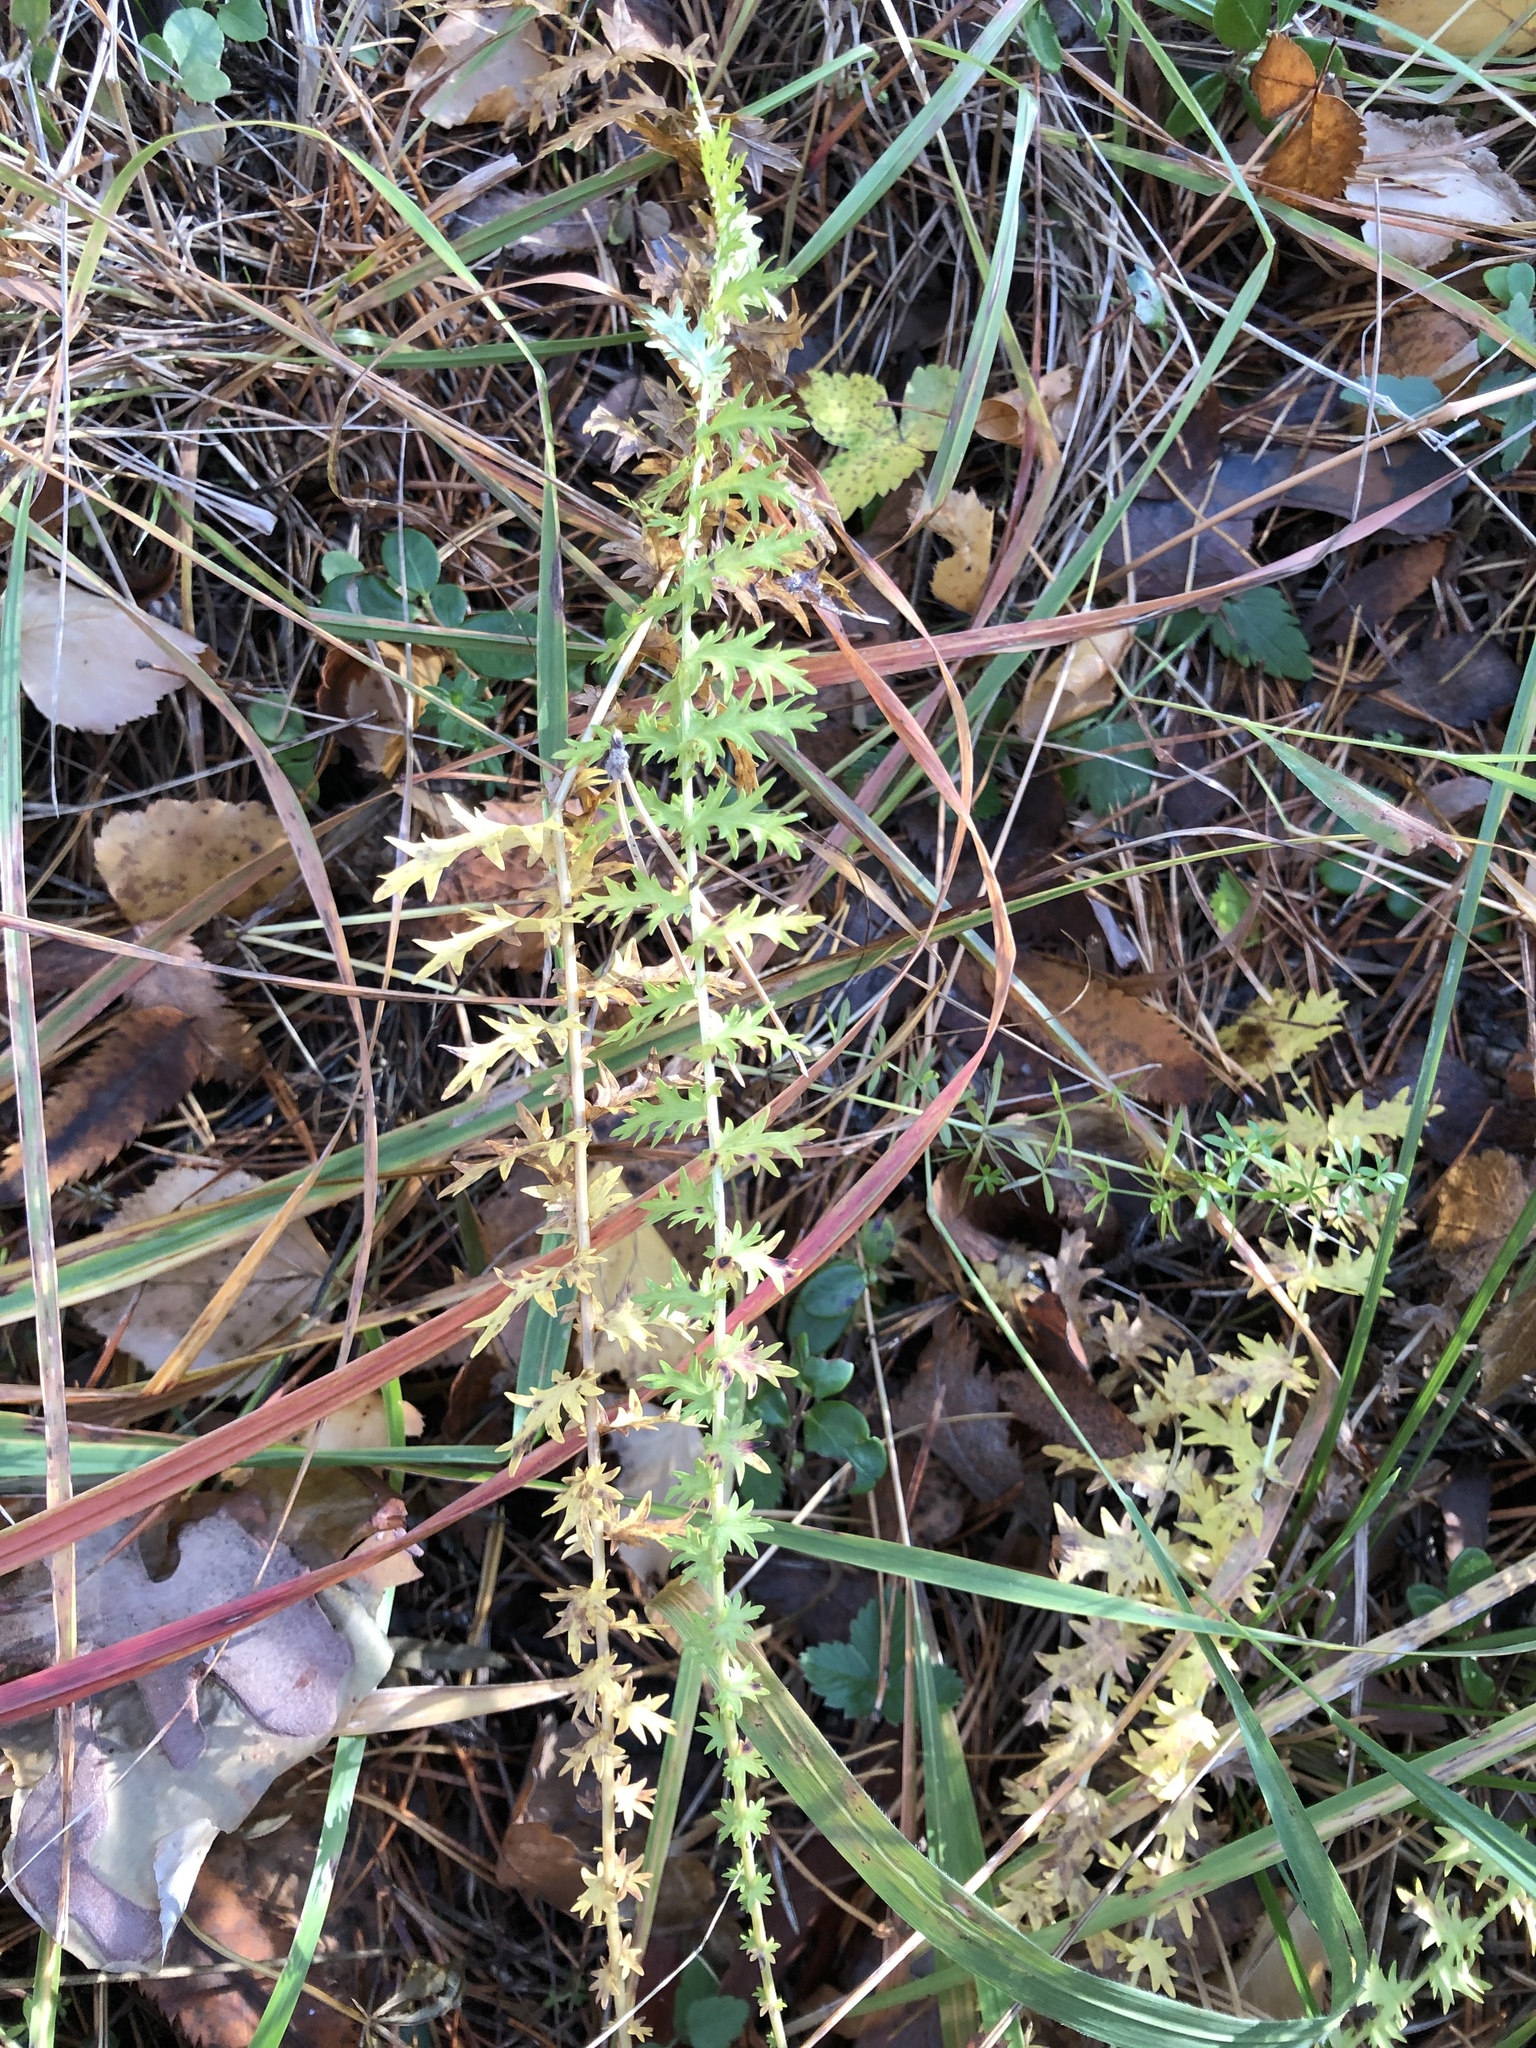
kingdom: Plantae
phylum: Tracheophyta
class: Magnoliopsida
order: Rosales
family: Rosaceae
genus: Filipendula
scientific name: Filipendula vulgaris
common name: Dropwort
